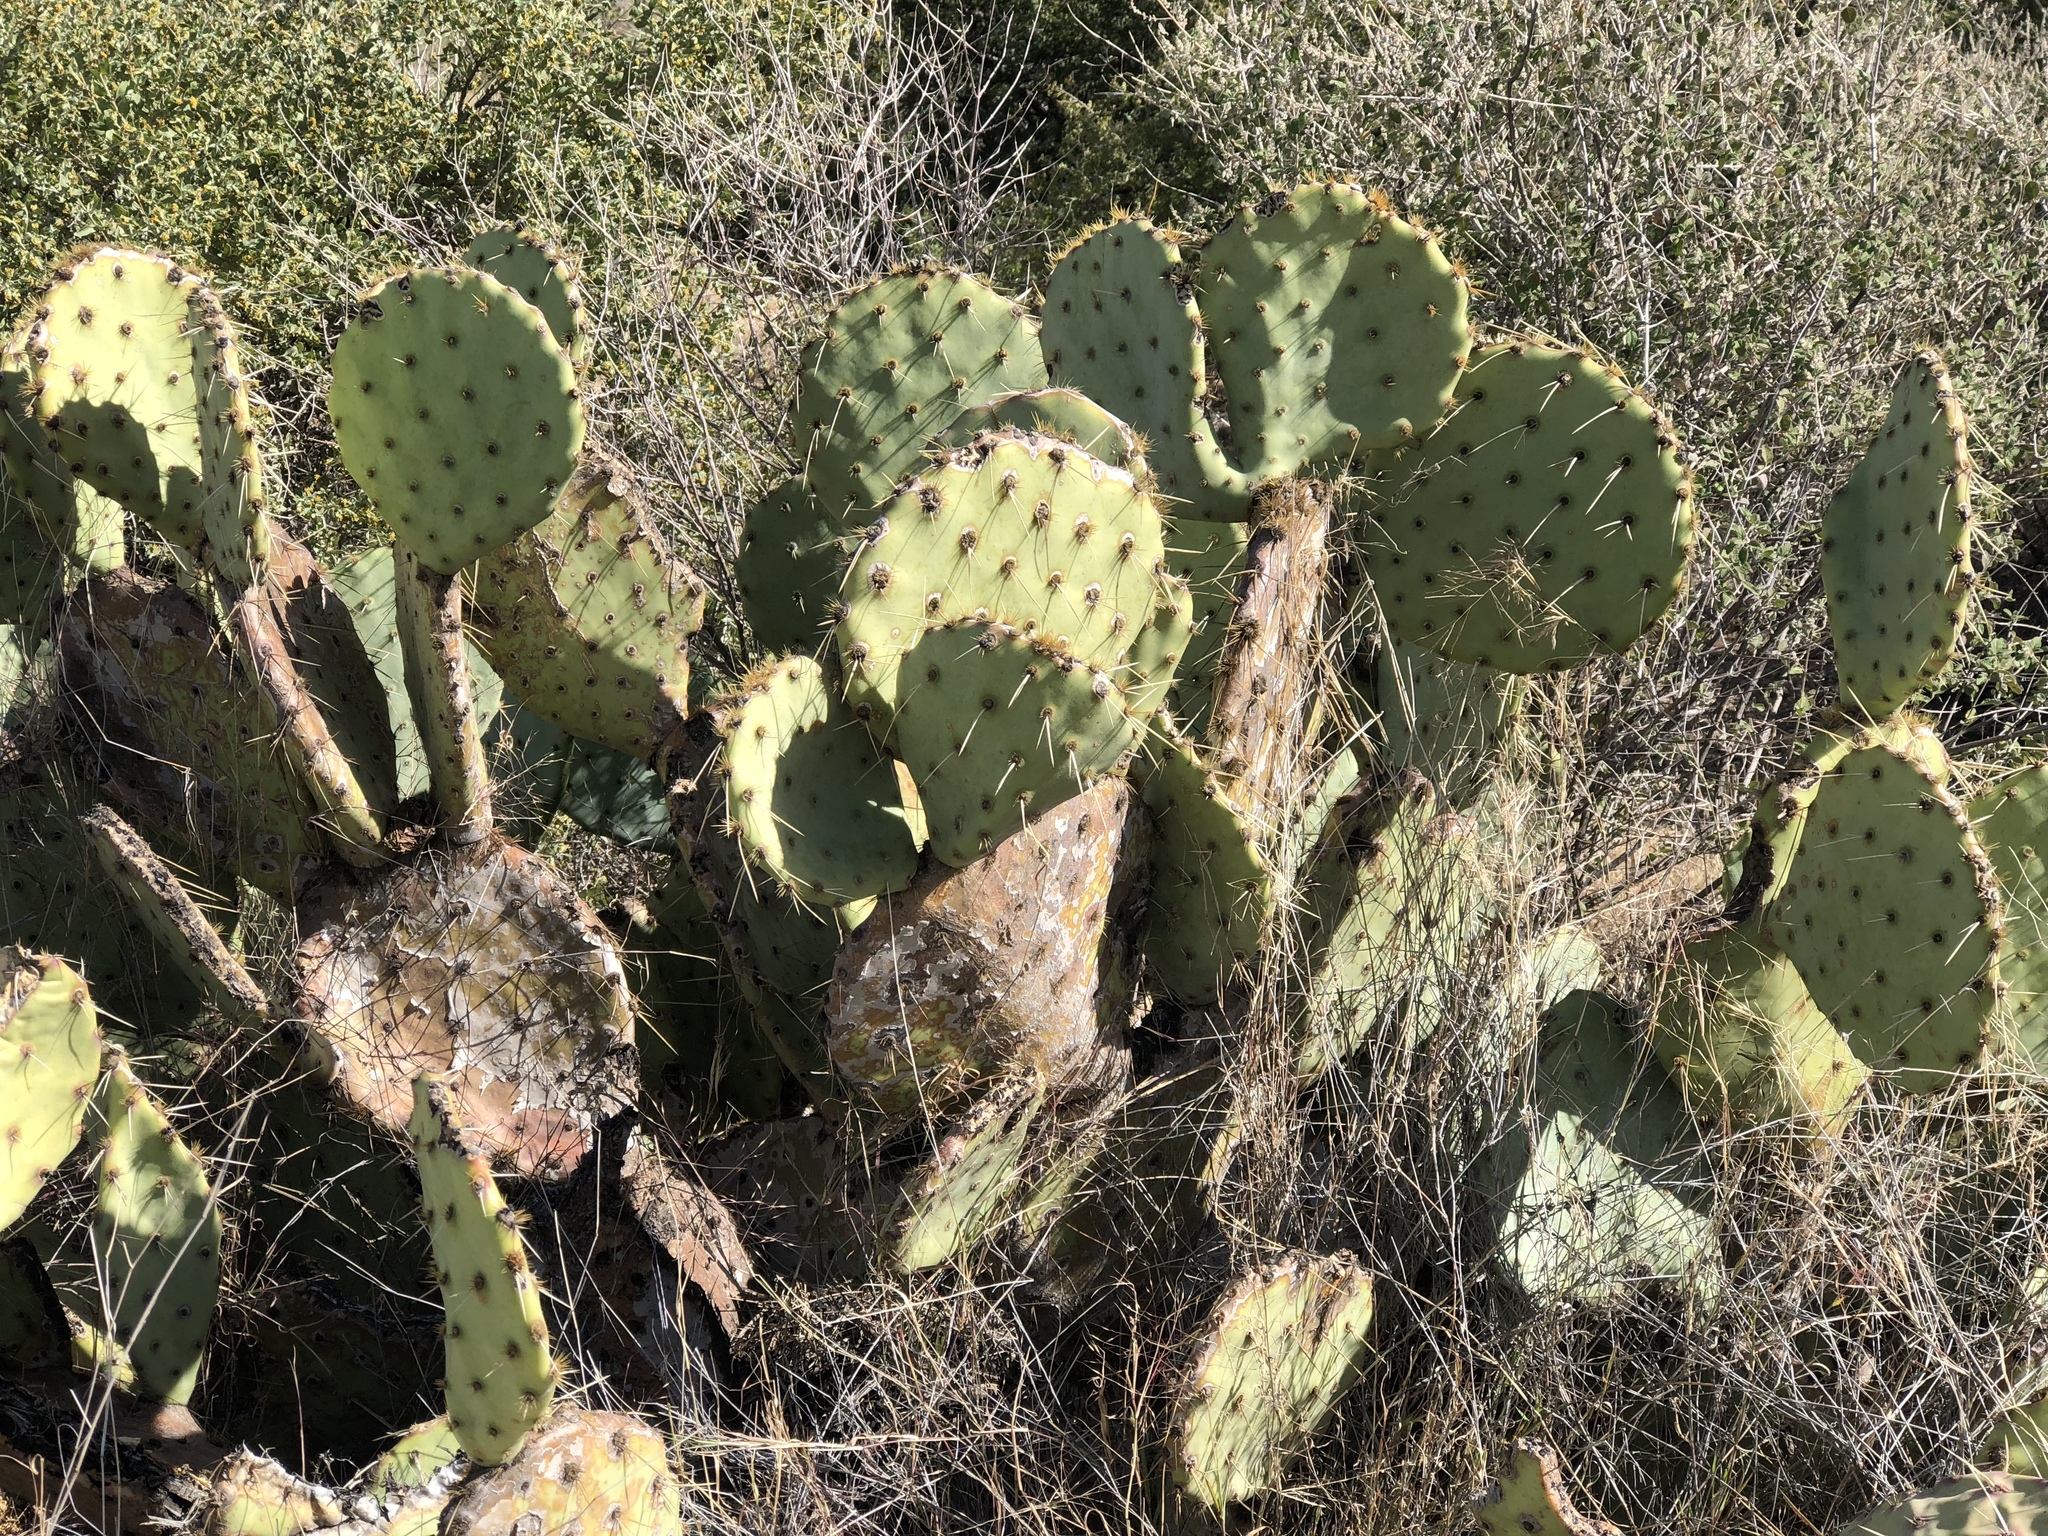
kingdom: Plantae
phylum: Tracheophyta
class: Magnoliopsida
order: Caryophyllales
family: Cactaceae
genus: Opuntia
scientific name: Opuntia engelmannii
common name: Cactus-apple
